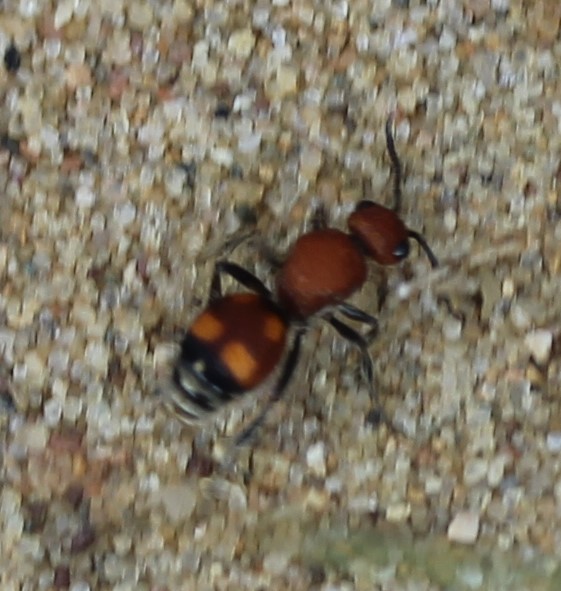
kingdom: Animalia
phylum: Arthropoda
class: Insecta
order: Hymenoptera
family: Mutillidae
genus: Dasymutilla
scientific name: Dasymutilla
